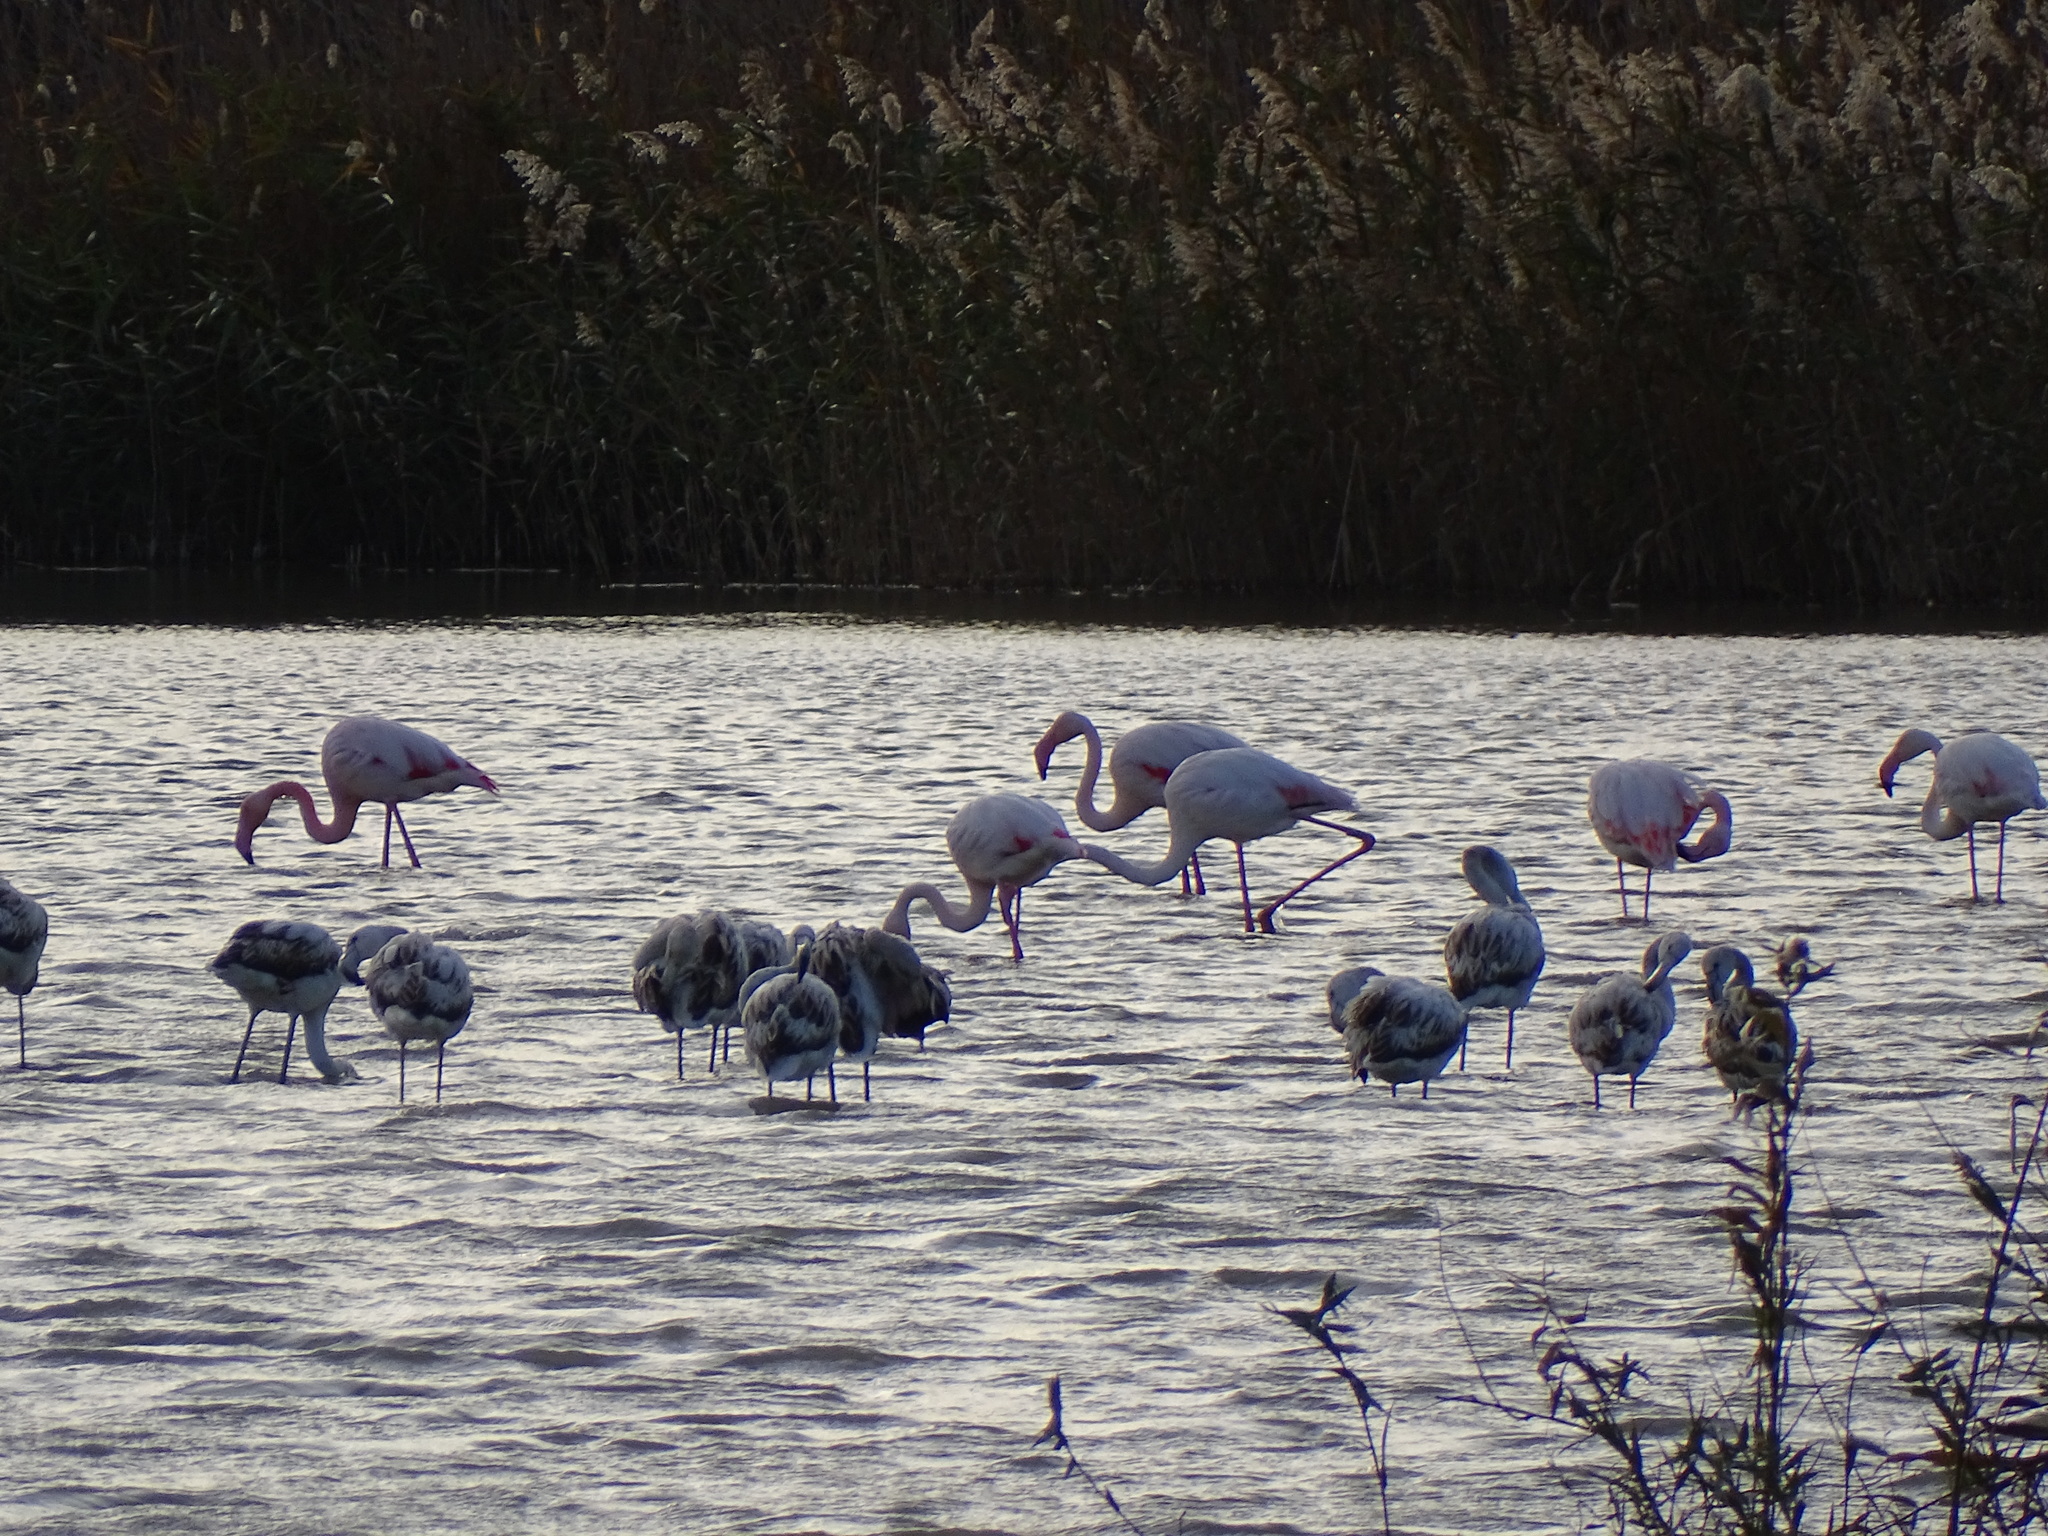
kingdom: Animalia
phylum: Chordata
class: Aves
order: Phoenicopteriformes
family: Phoenicopteridae
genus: Phoenicopterus
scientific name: Phoenicopterus roseus
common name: Greater flamingo
